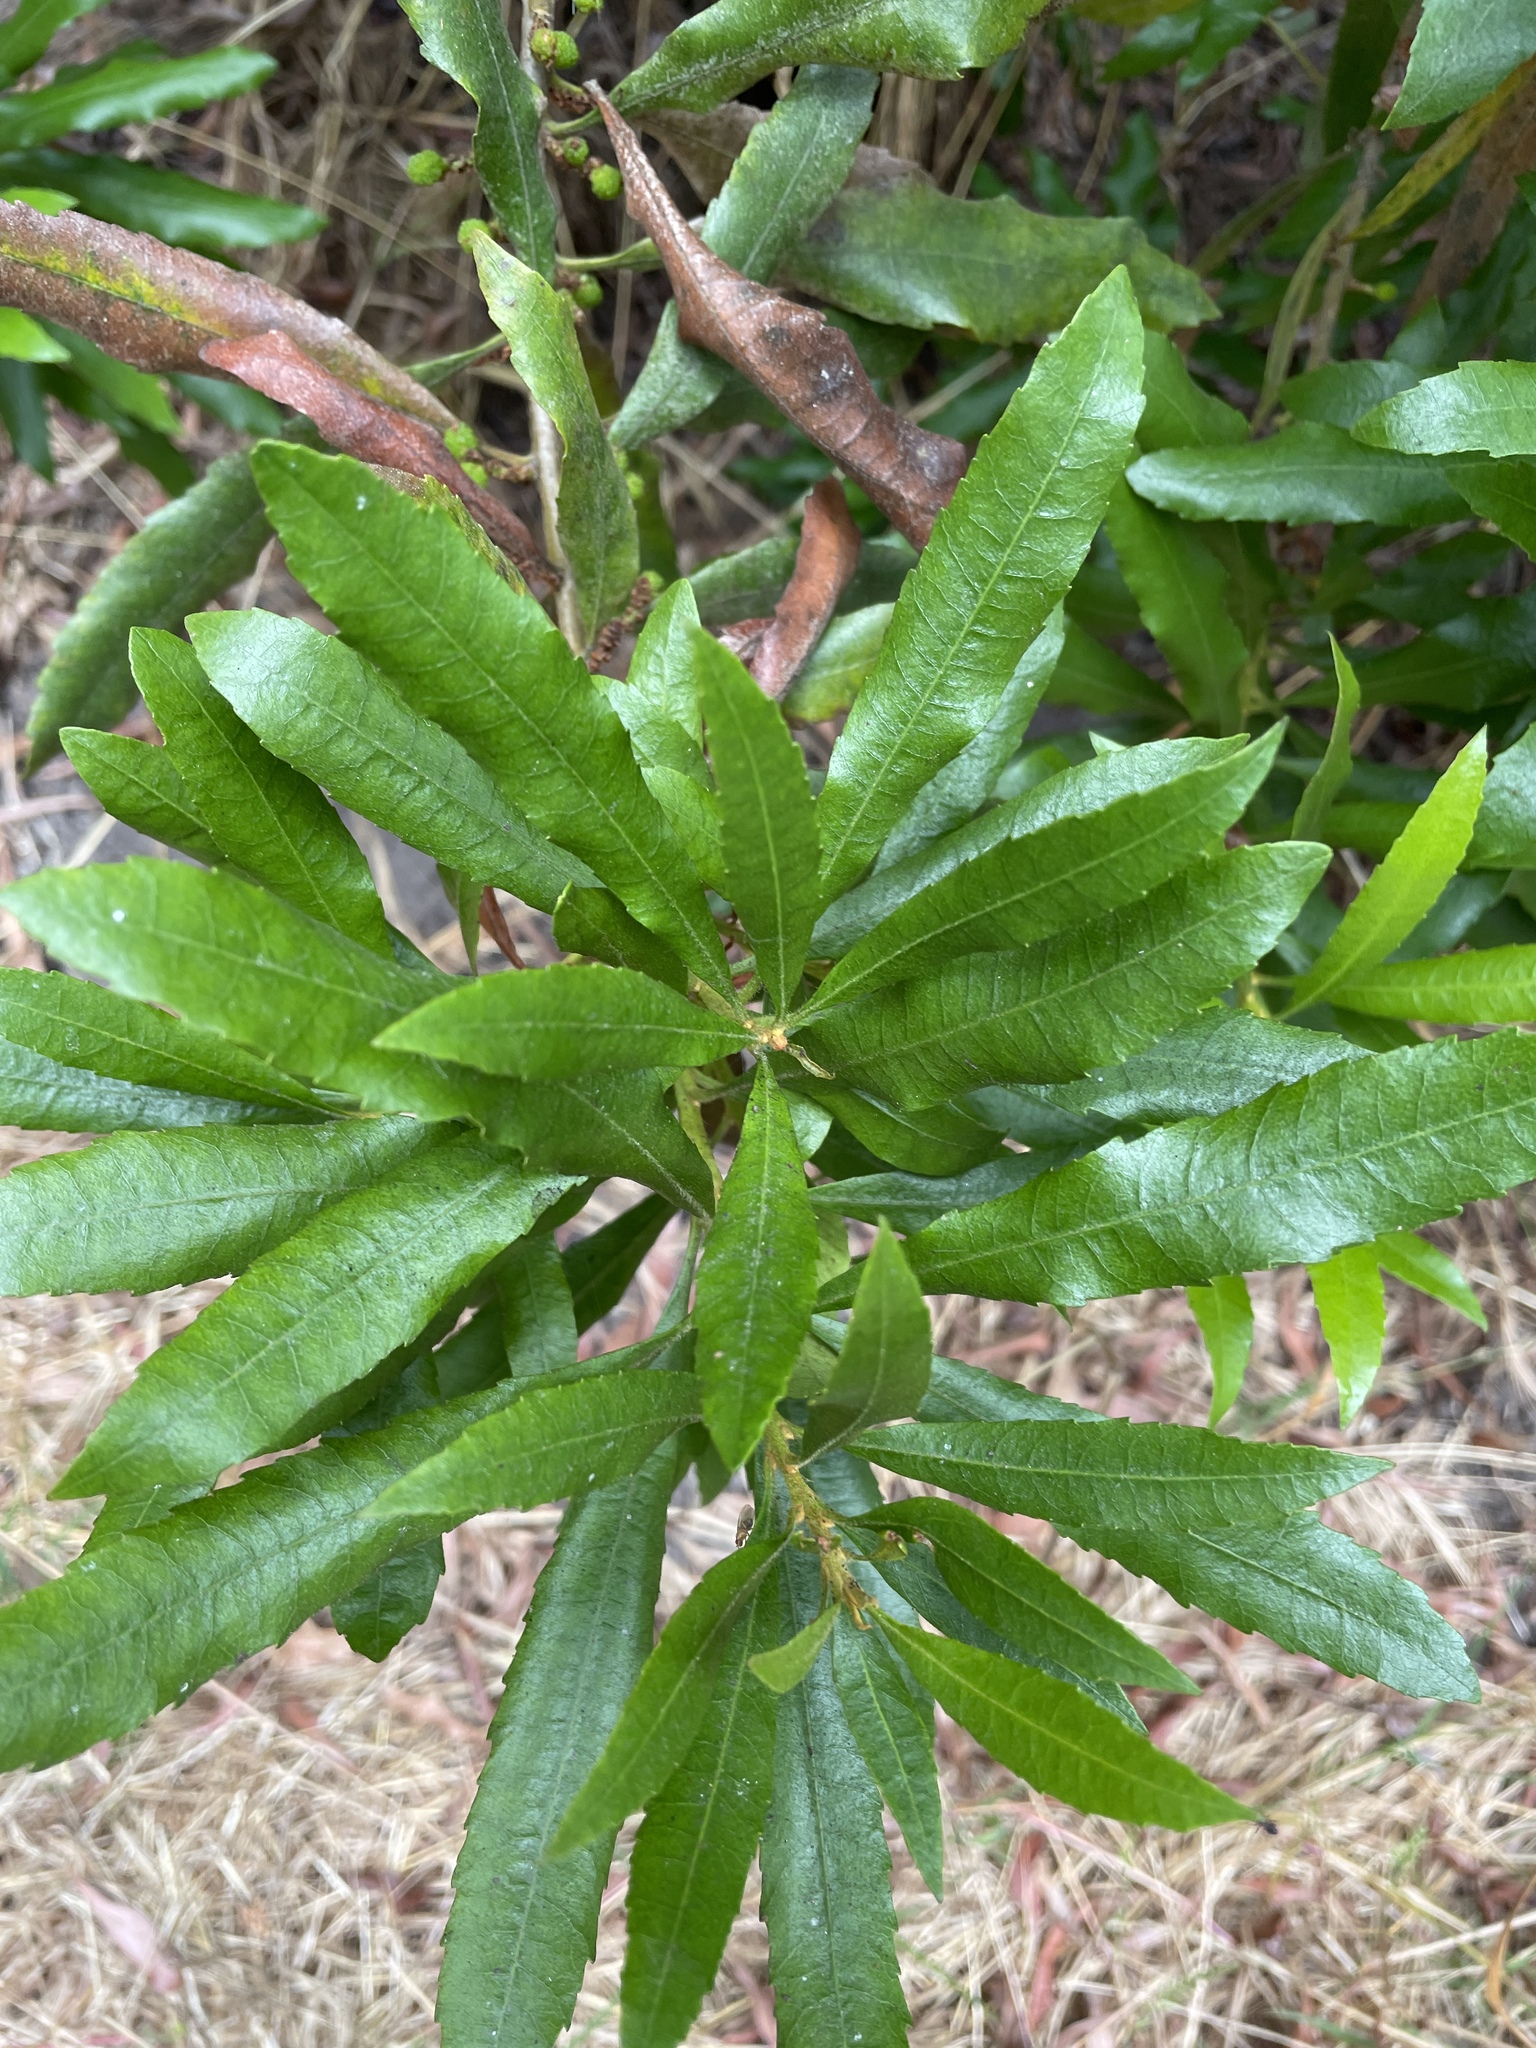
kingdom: Plantae
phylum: Tracheophyta
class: Magnoliopsida
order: Fagales
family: Myricaceae
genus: Morella
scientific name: Morella californica
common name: California wax-myrtle
